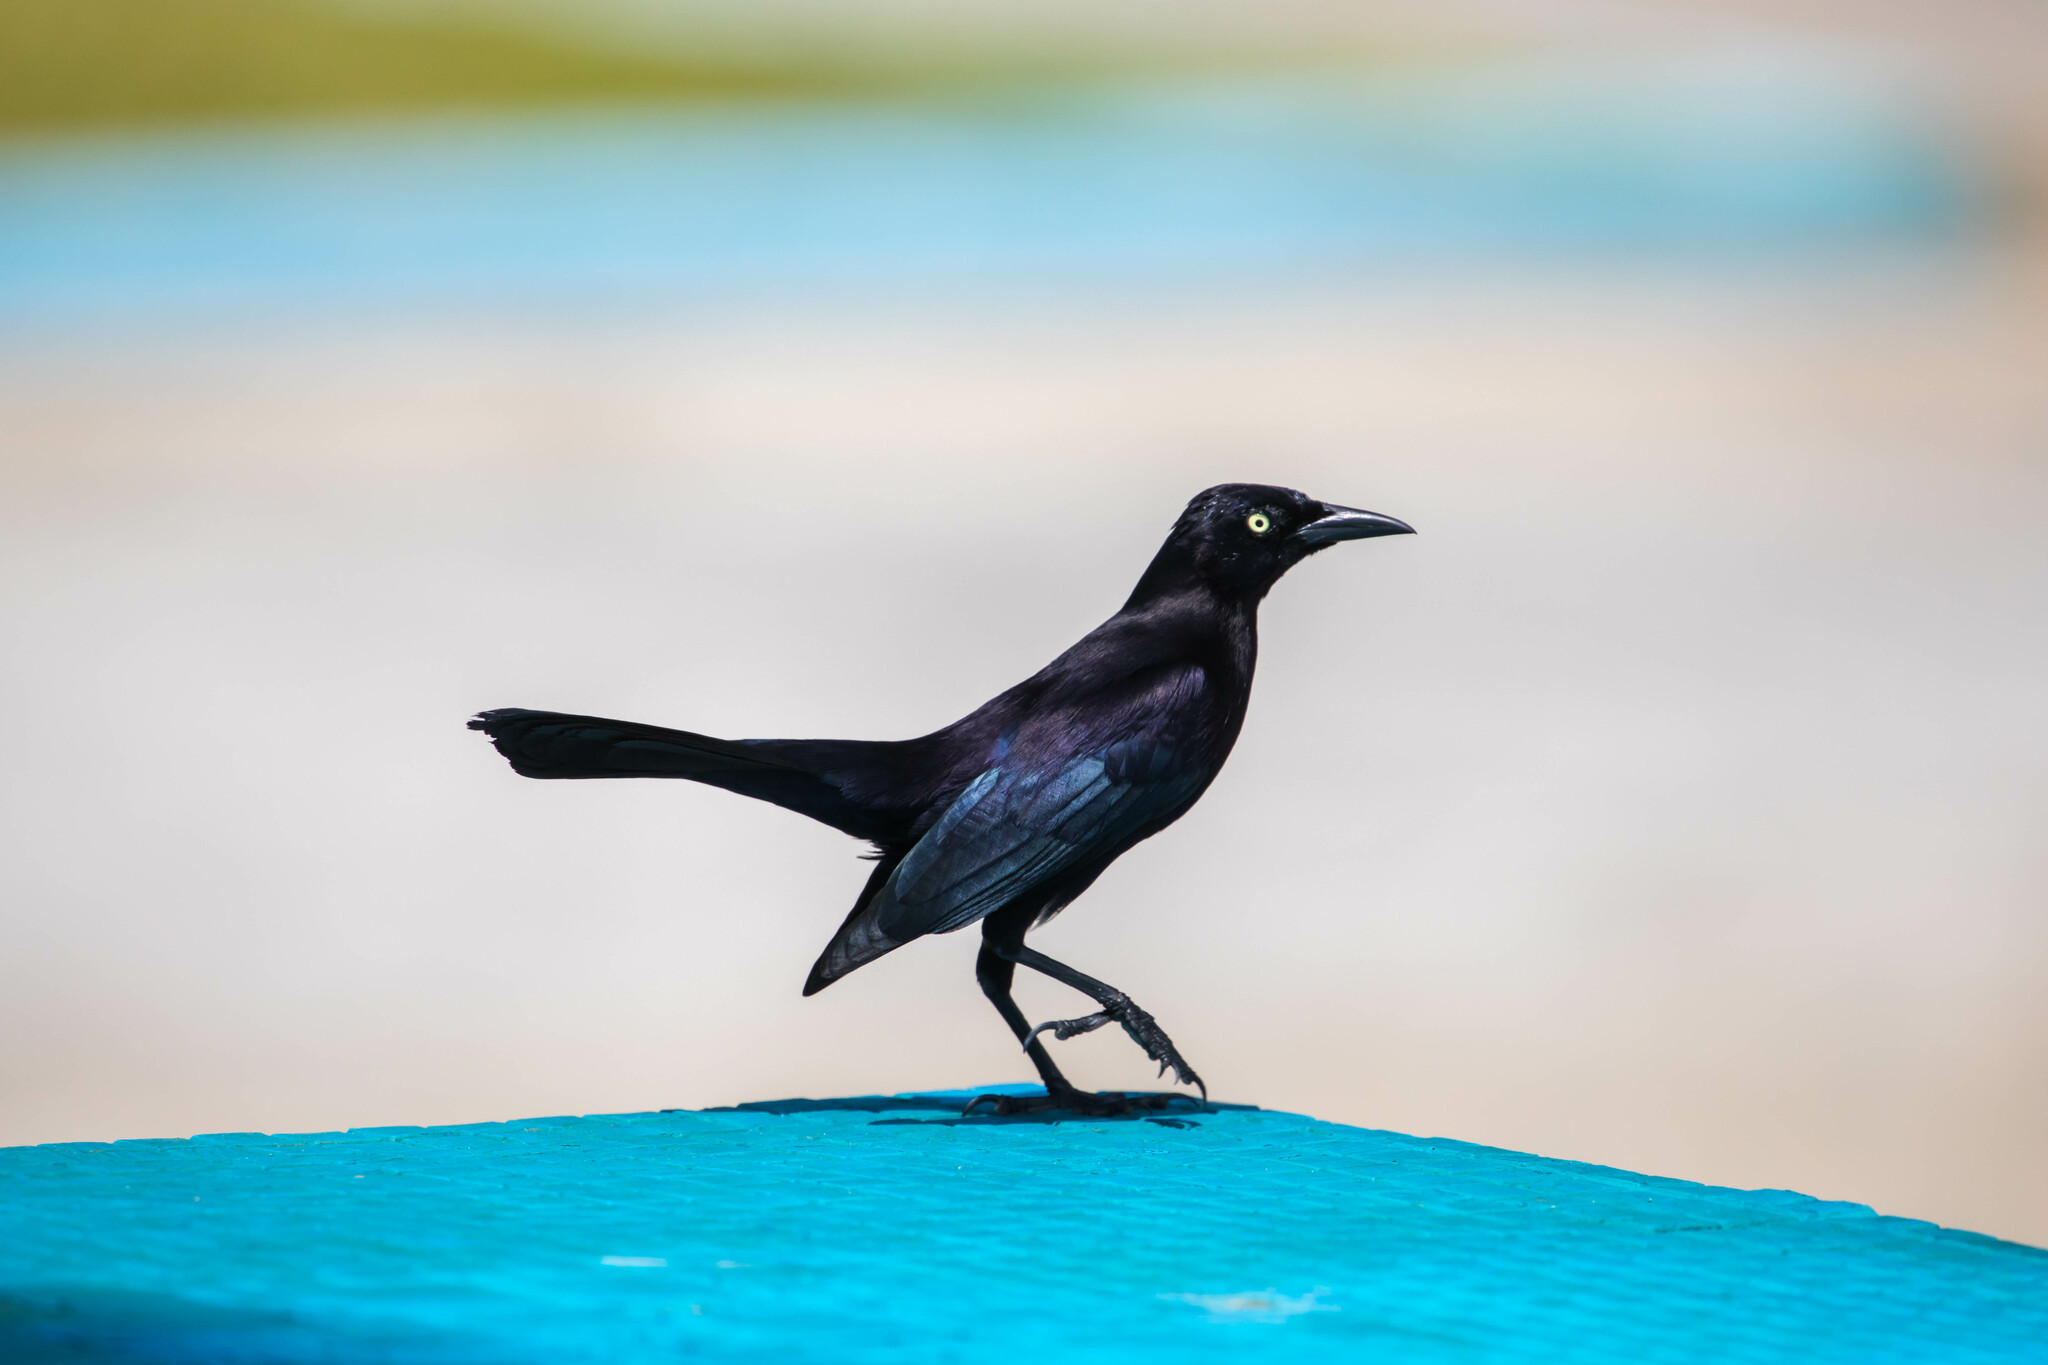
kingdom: Animalia
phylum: Chordata
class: Aves
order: Passeriformes
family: Icteridae
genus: Quiscalus
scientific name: Quiscalus lugubris
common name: Carib grackle
